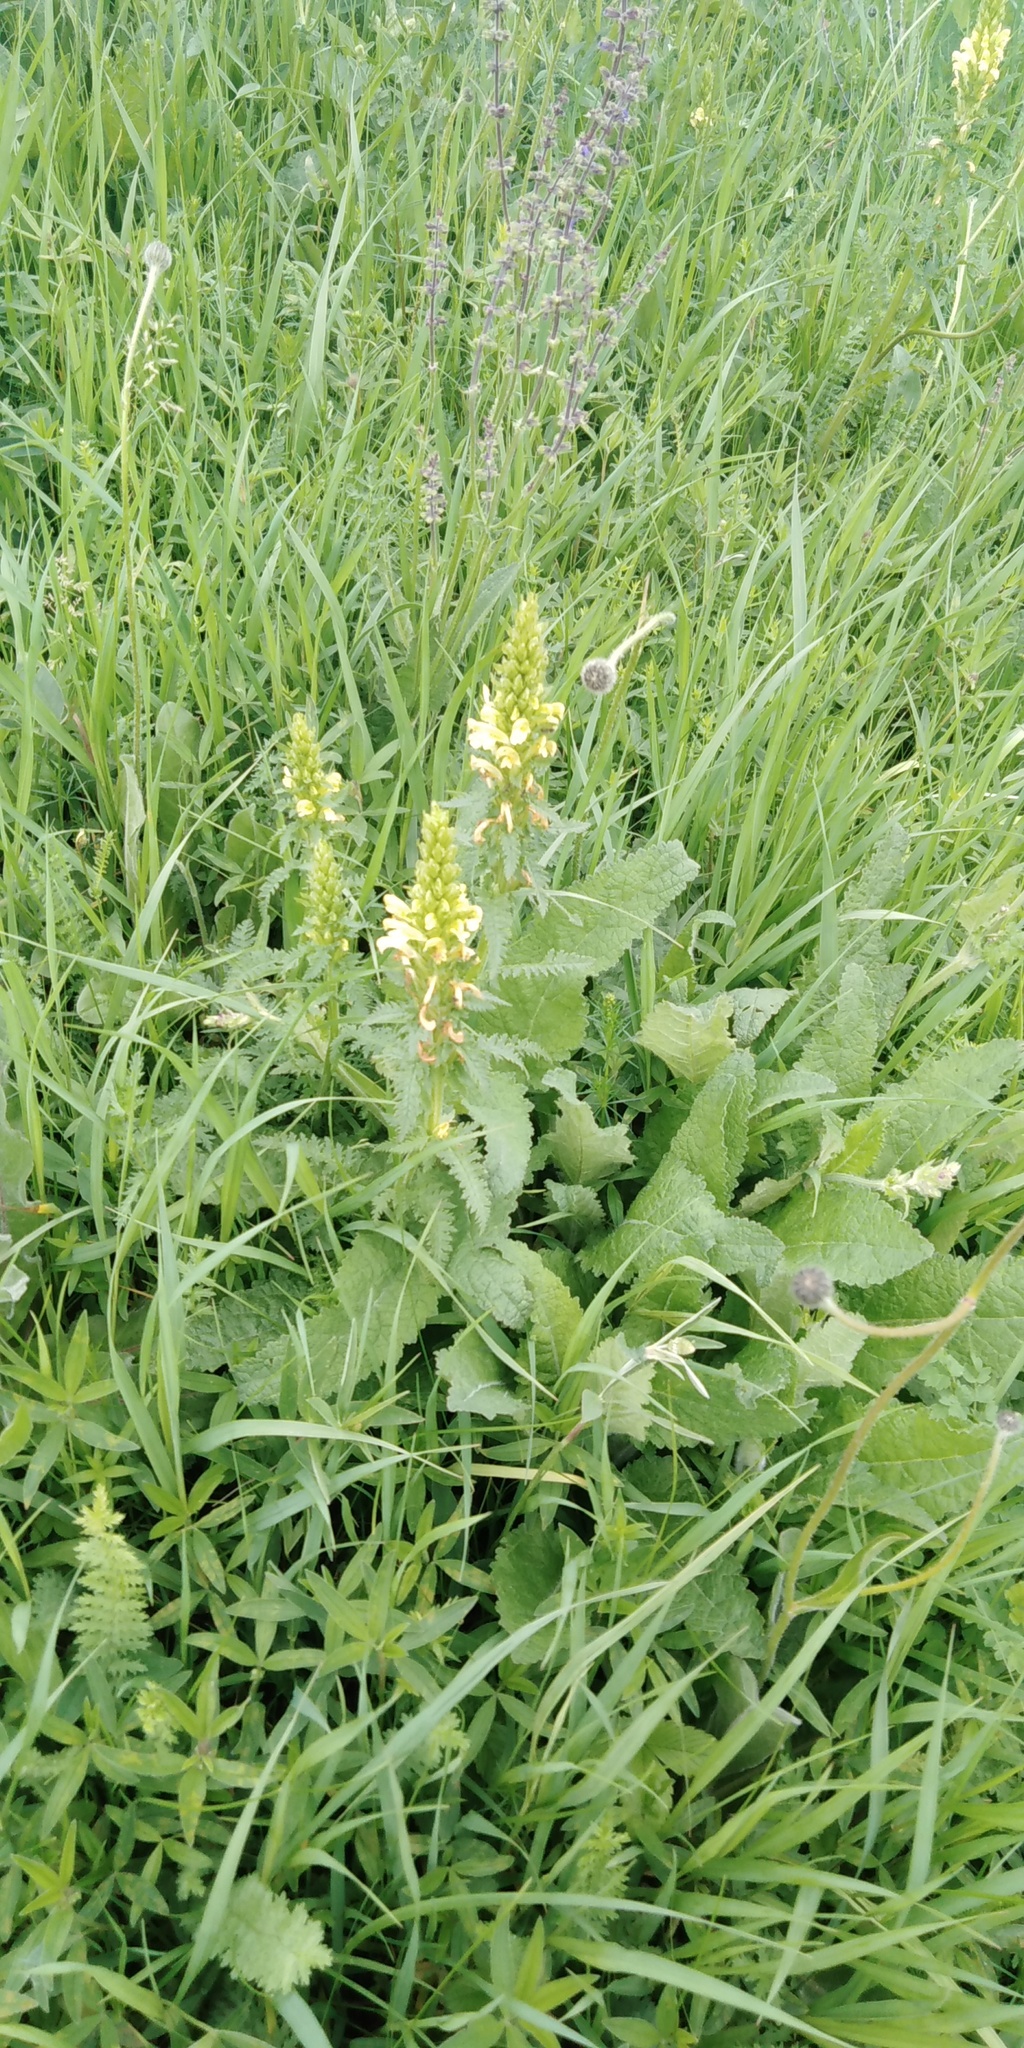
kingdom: Plantae
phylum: Tracheophyta
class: Magnoliopsida
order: Lamiales
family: Orobanchaceae
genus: Pedicularis
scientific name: Pedicularis kaufmannii
